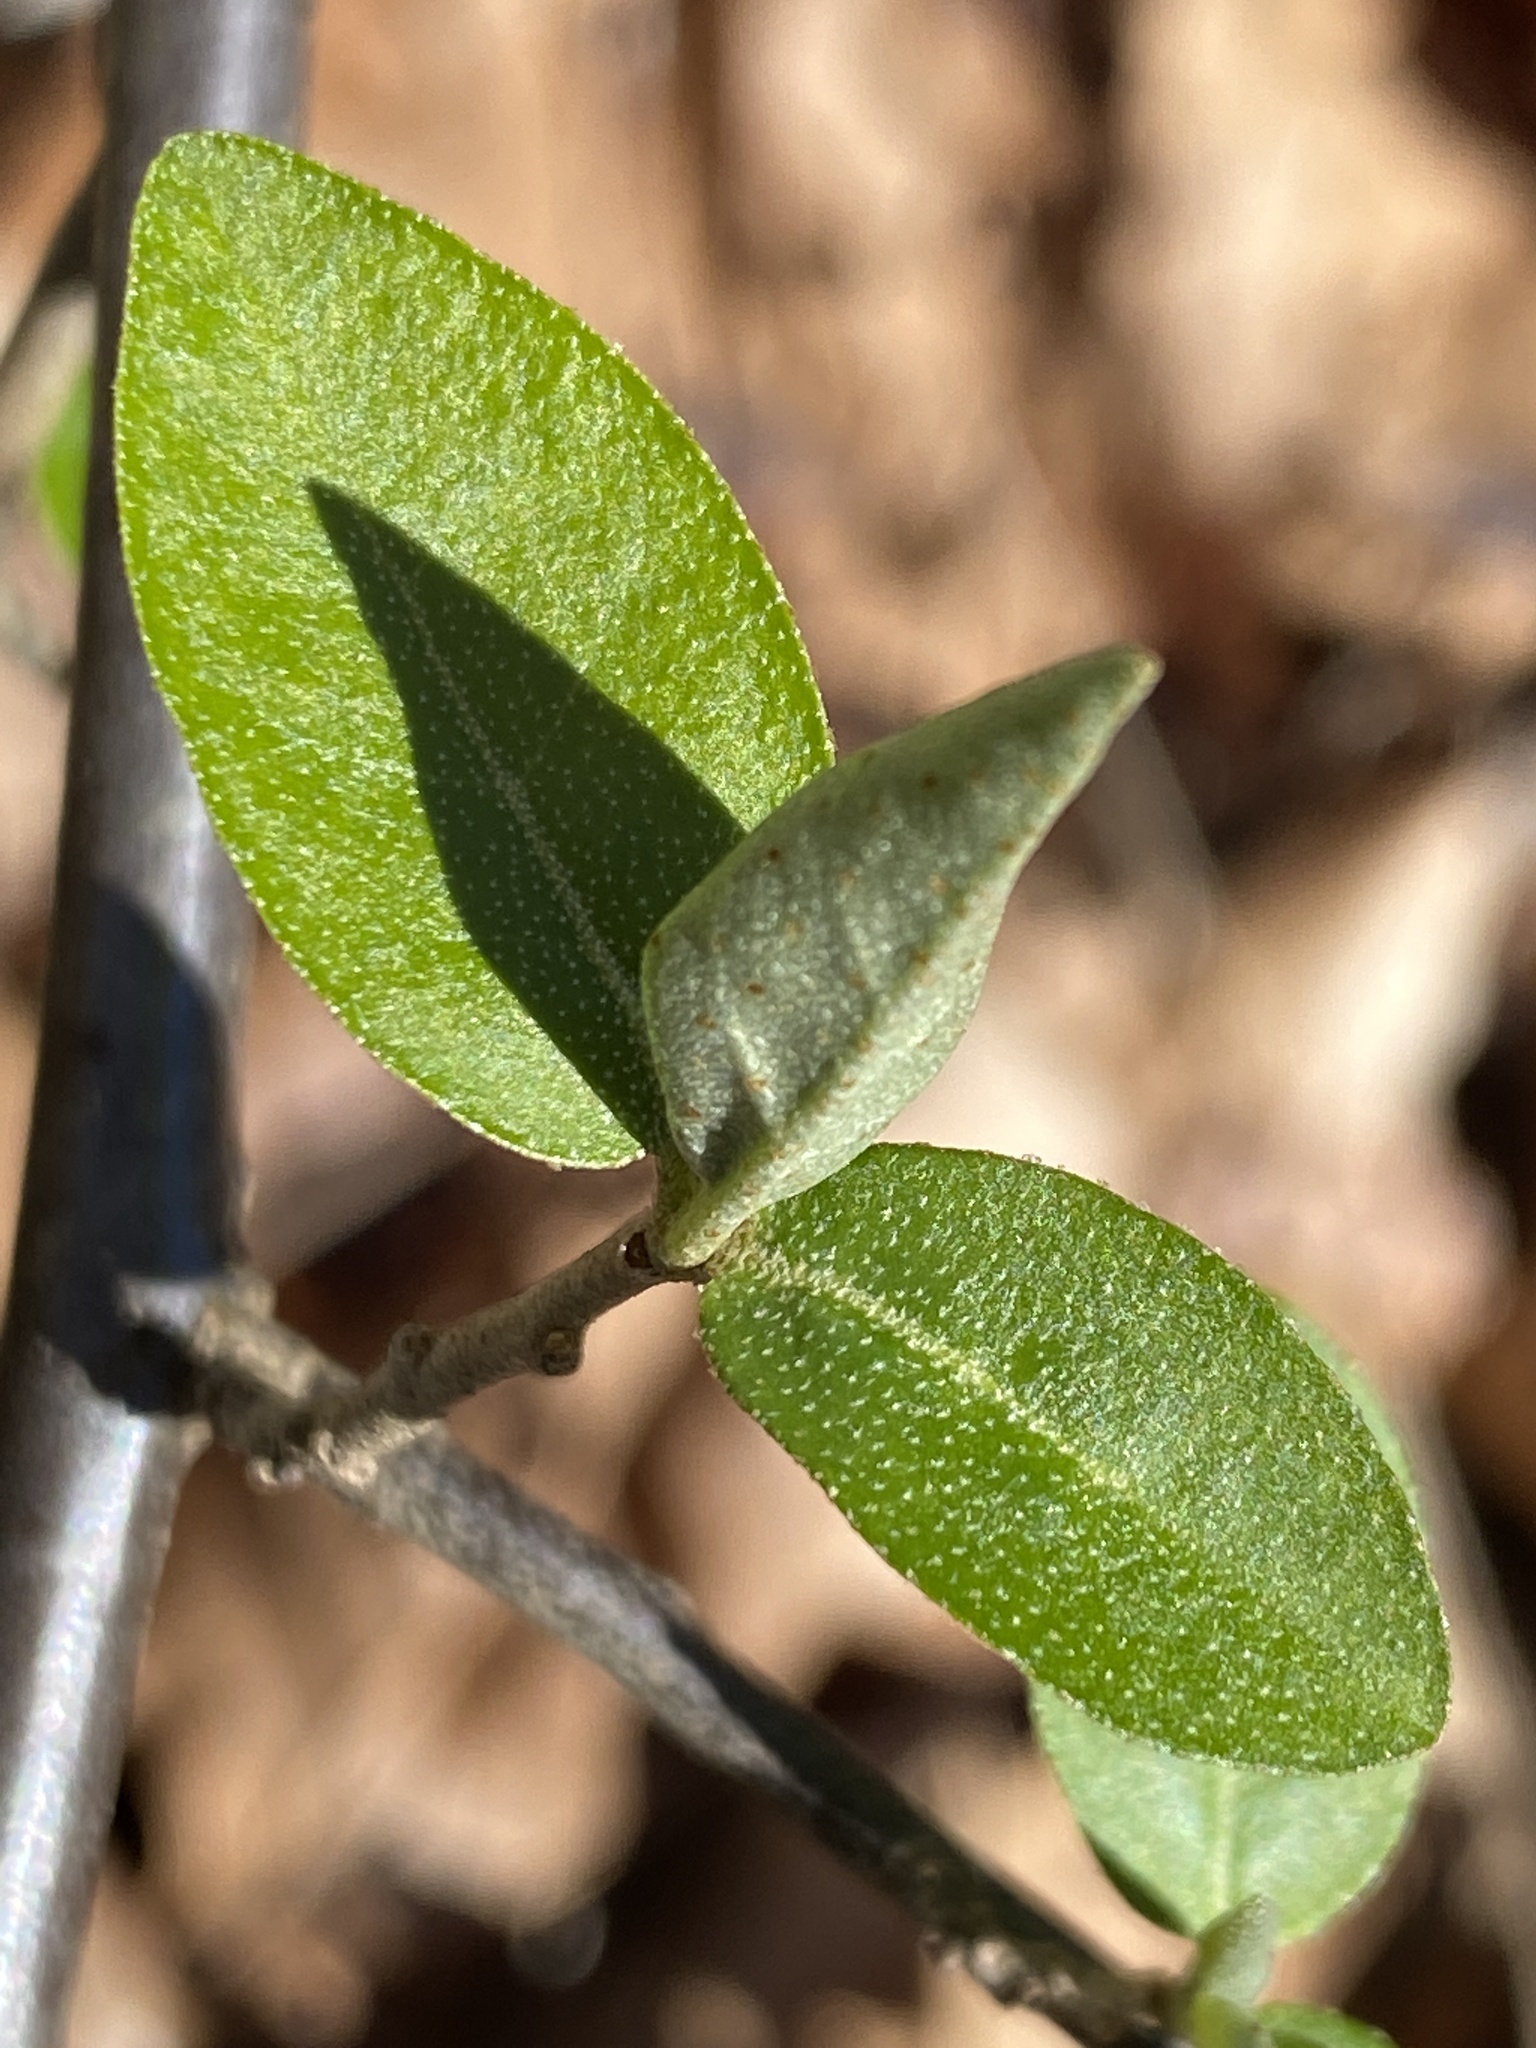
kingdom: Plantae
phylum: Tracheophyta
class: Magnoliopsida
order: Rosales
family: Elaeagnaceae
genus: Elaeagnus
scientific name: Elaeagnus umbellata
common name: Autumn olive
